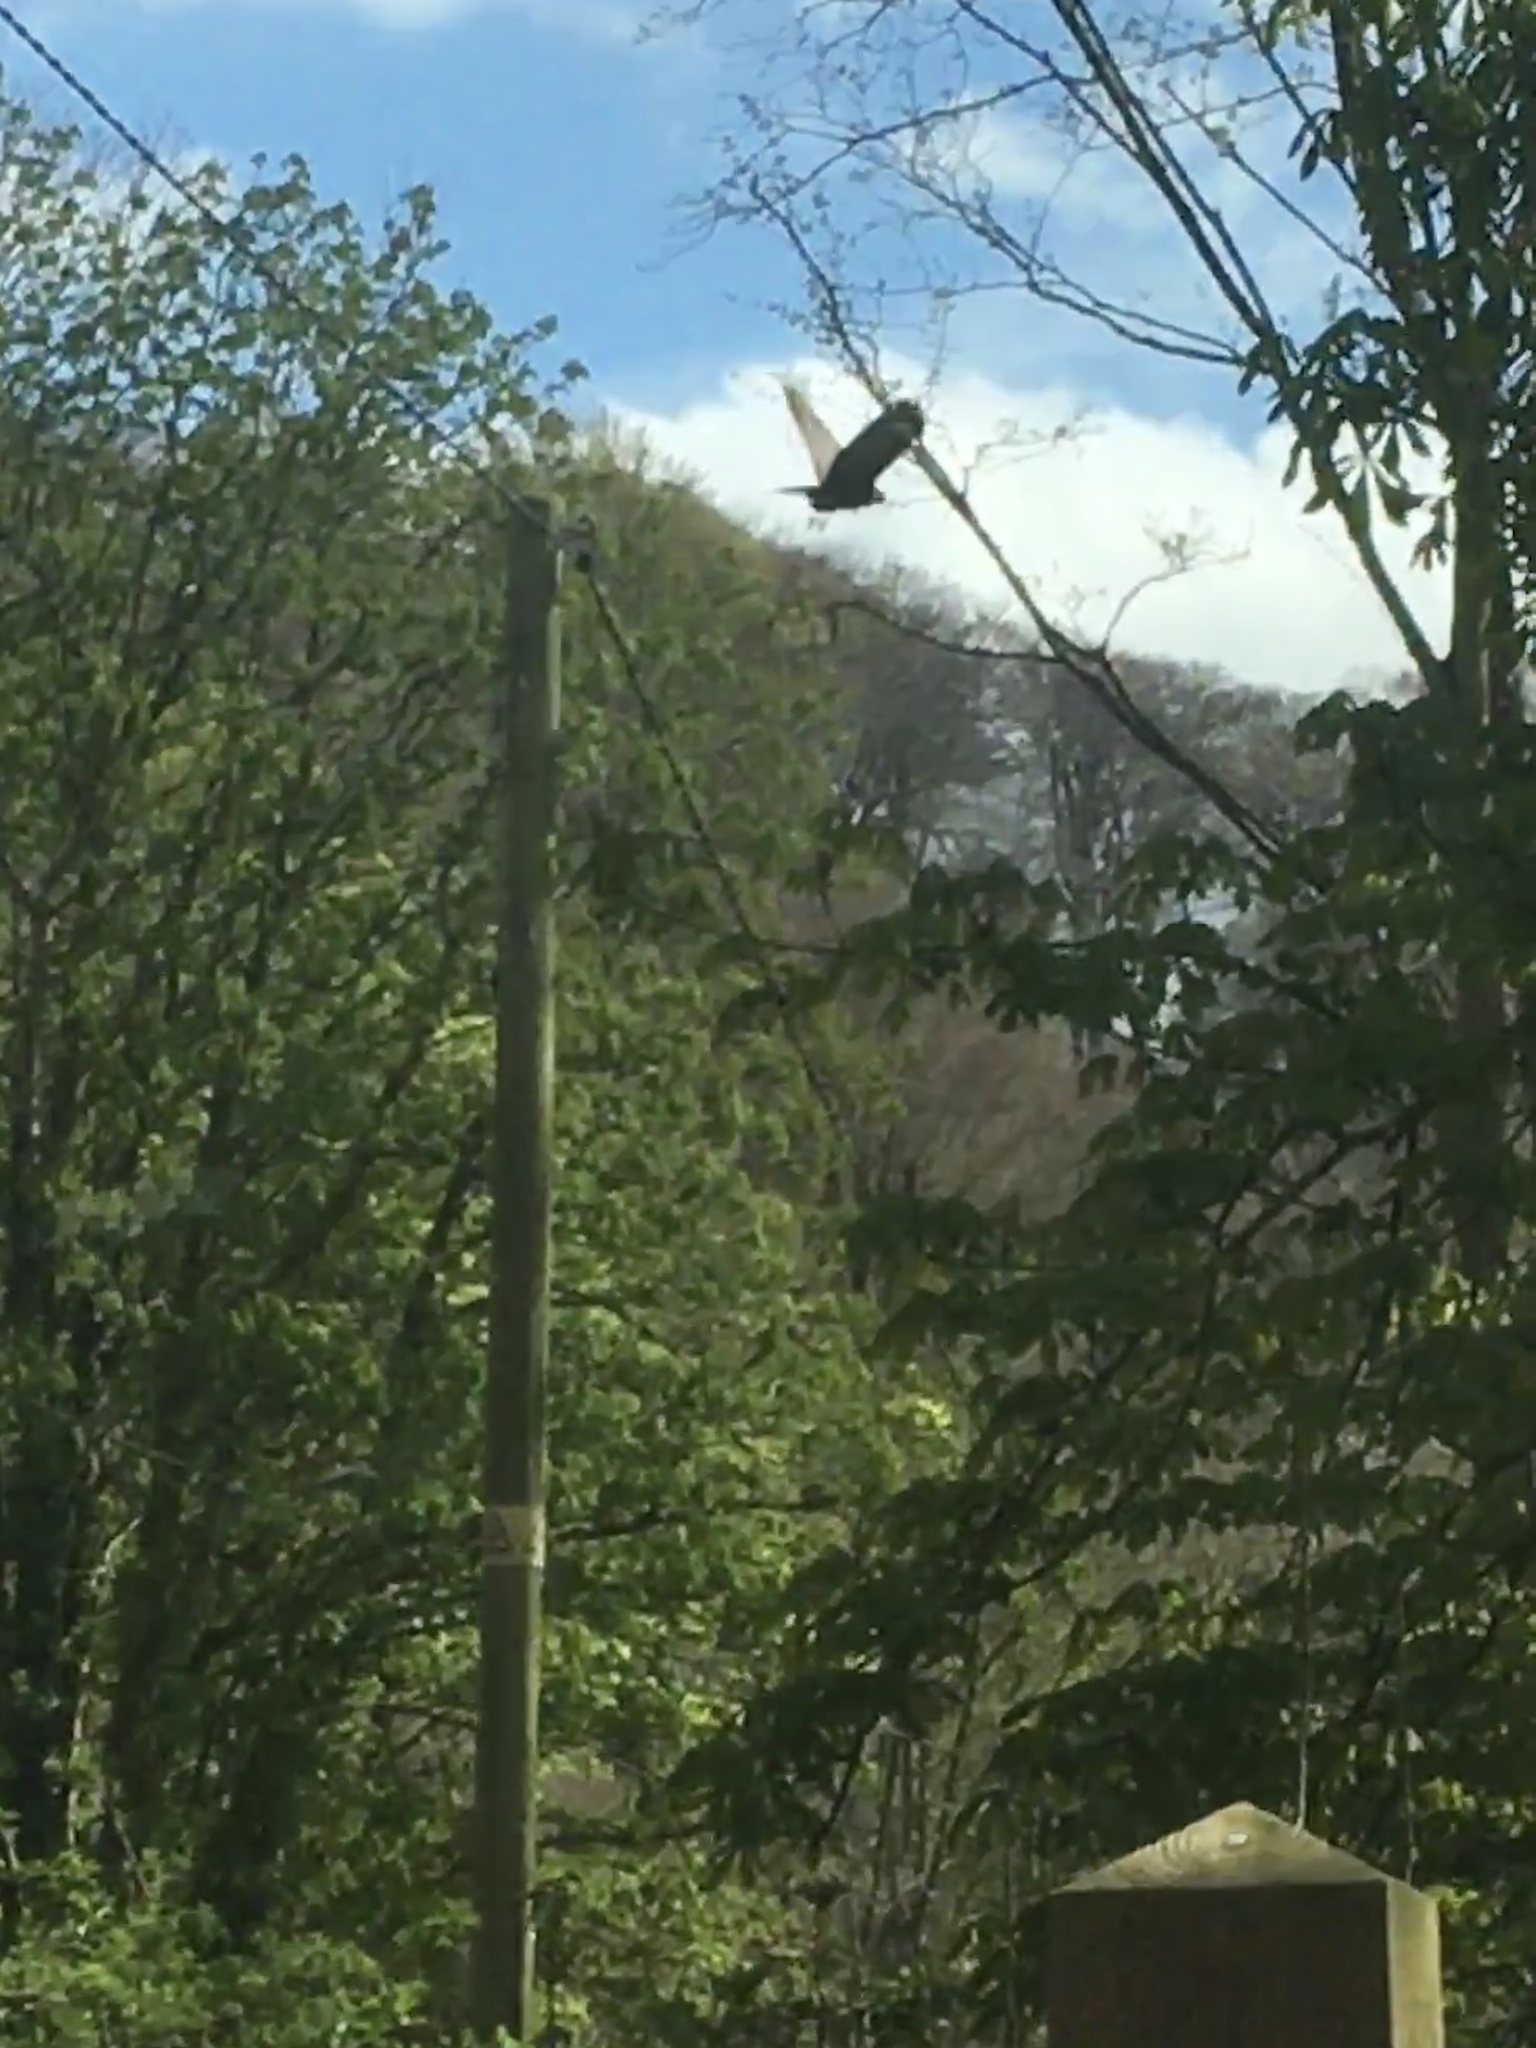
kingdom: Animalia
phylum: Chordata
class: Aves
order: Accipitriformes
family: Accipitridae
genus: Buteo
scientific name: Buteo buteo
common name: Common buzzard
